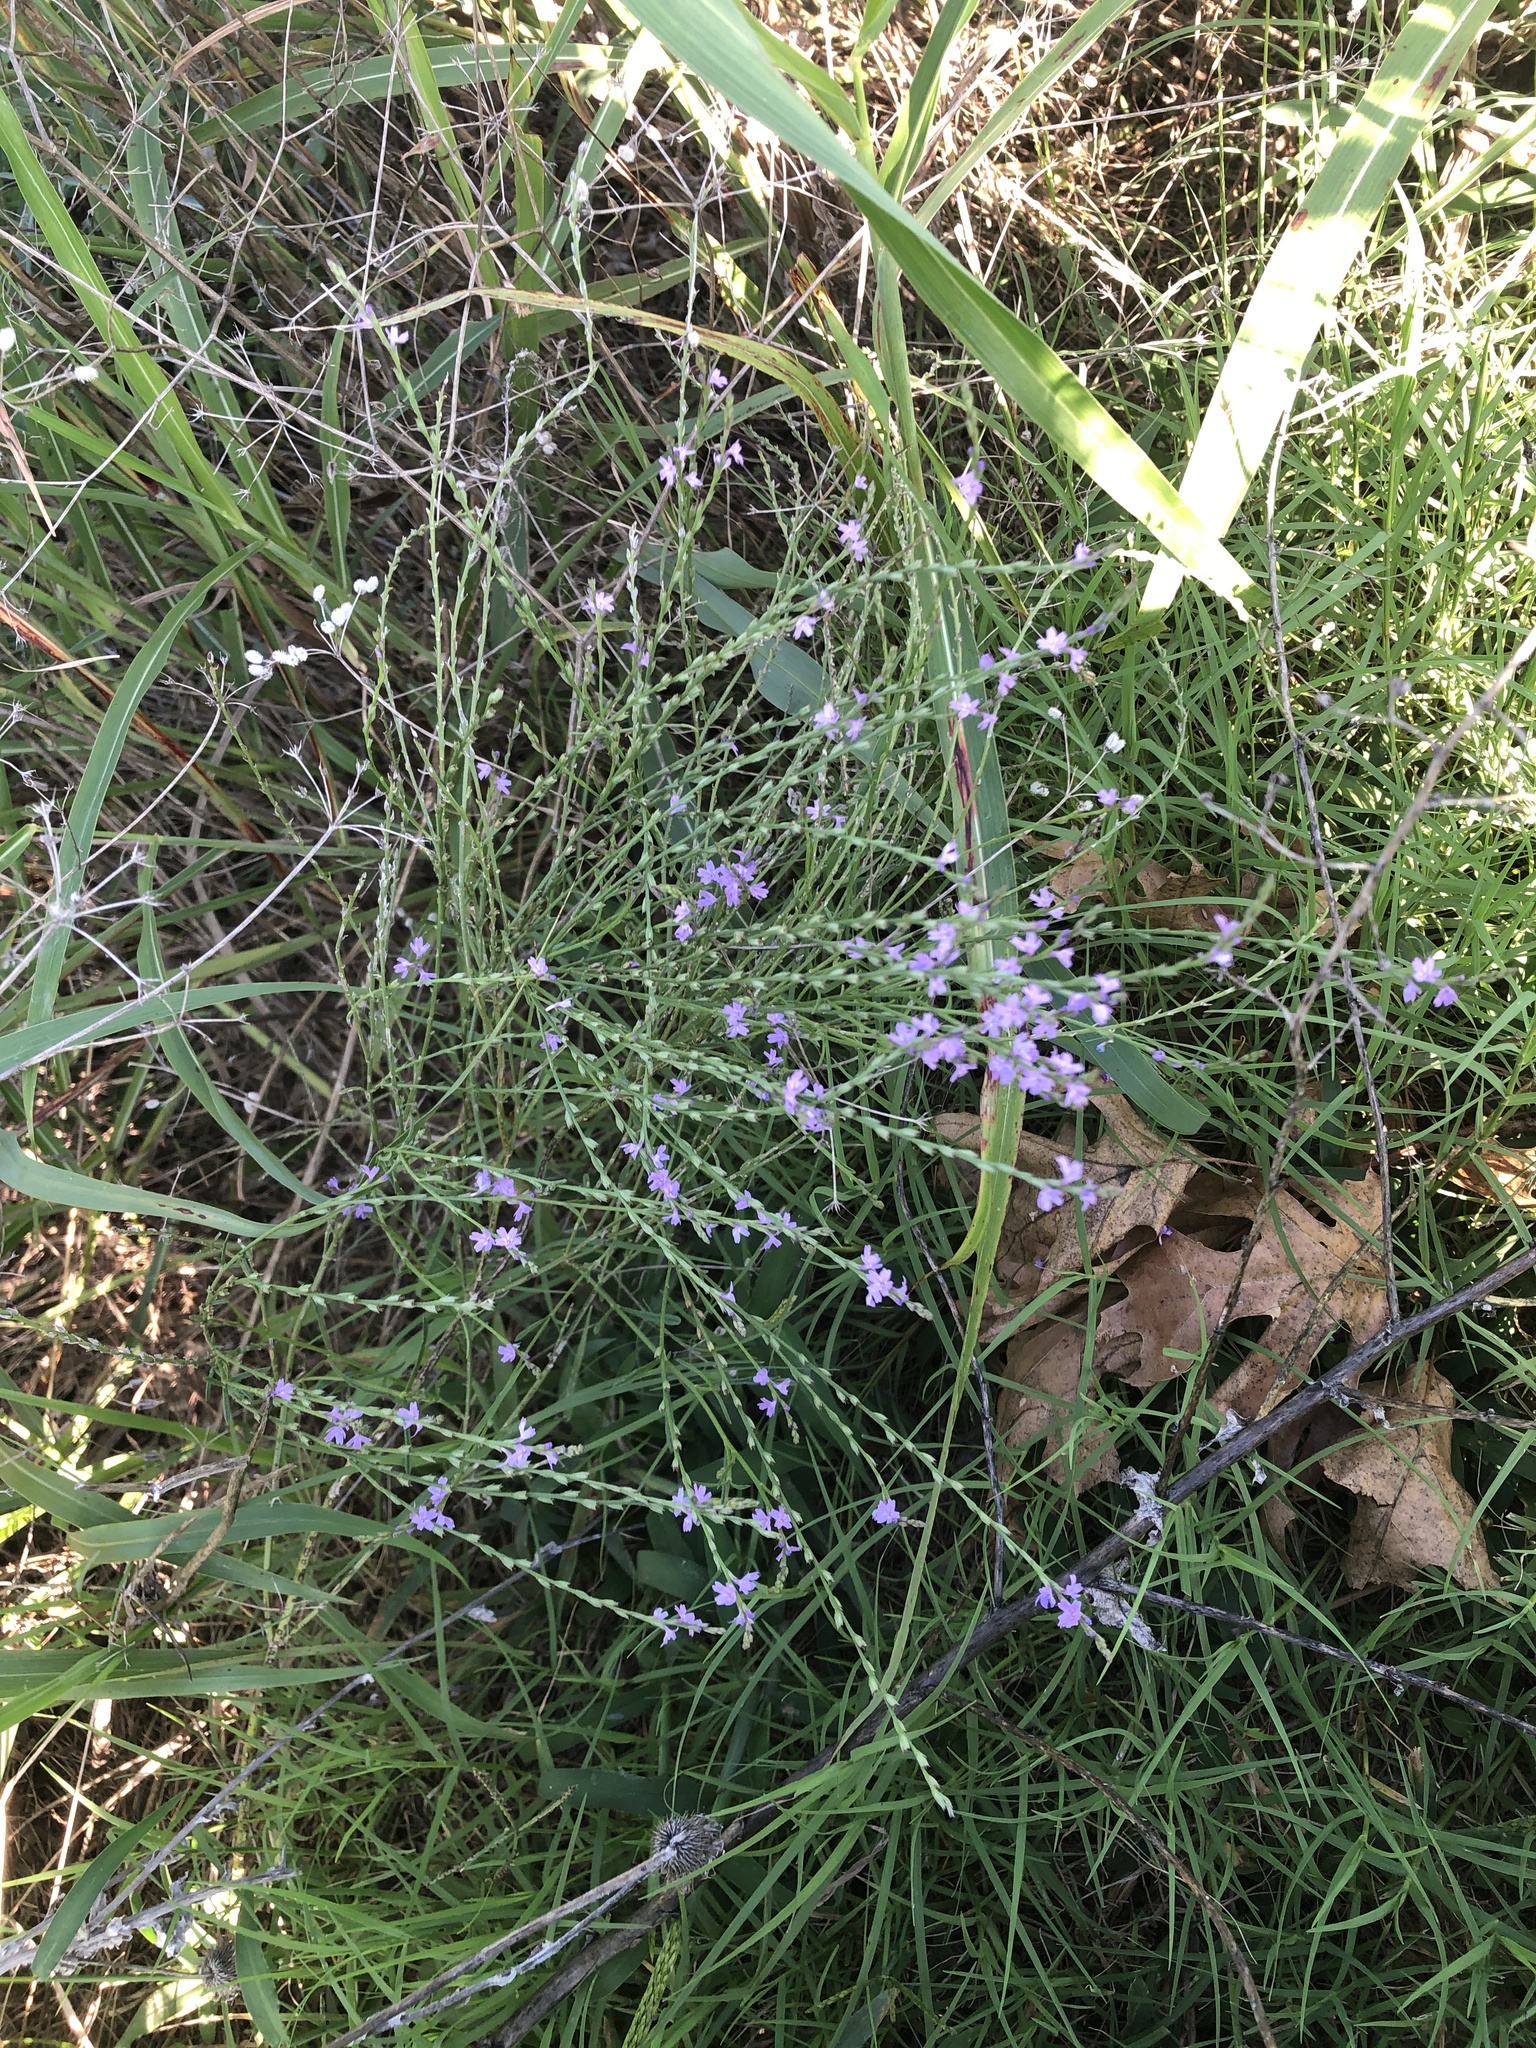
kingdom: Plantae
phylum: Tracheophyta
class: Magnoliopsida
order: Lamiales
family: Verbenaceae
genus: Verbena
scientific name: Verbena halei
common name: Texas vervain
